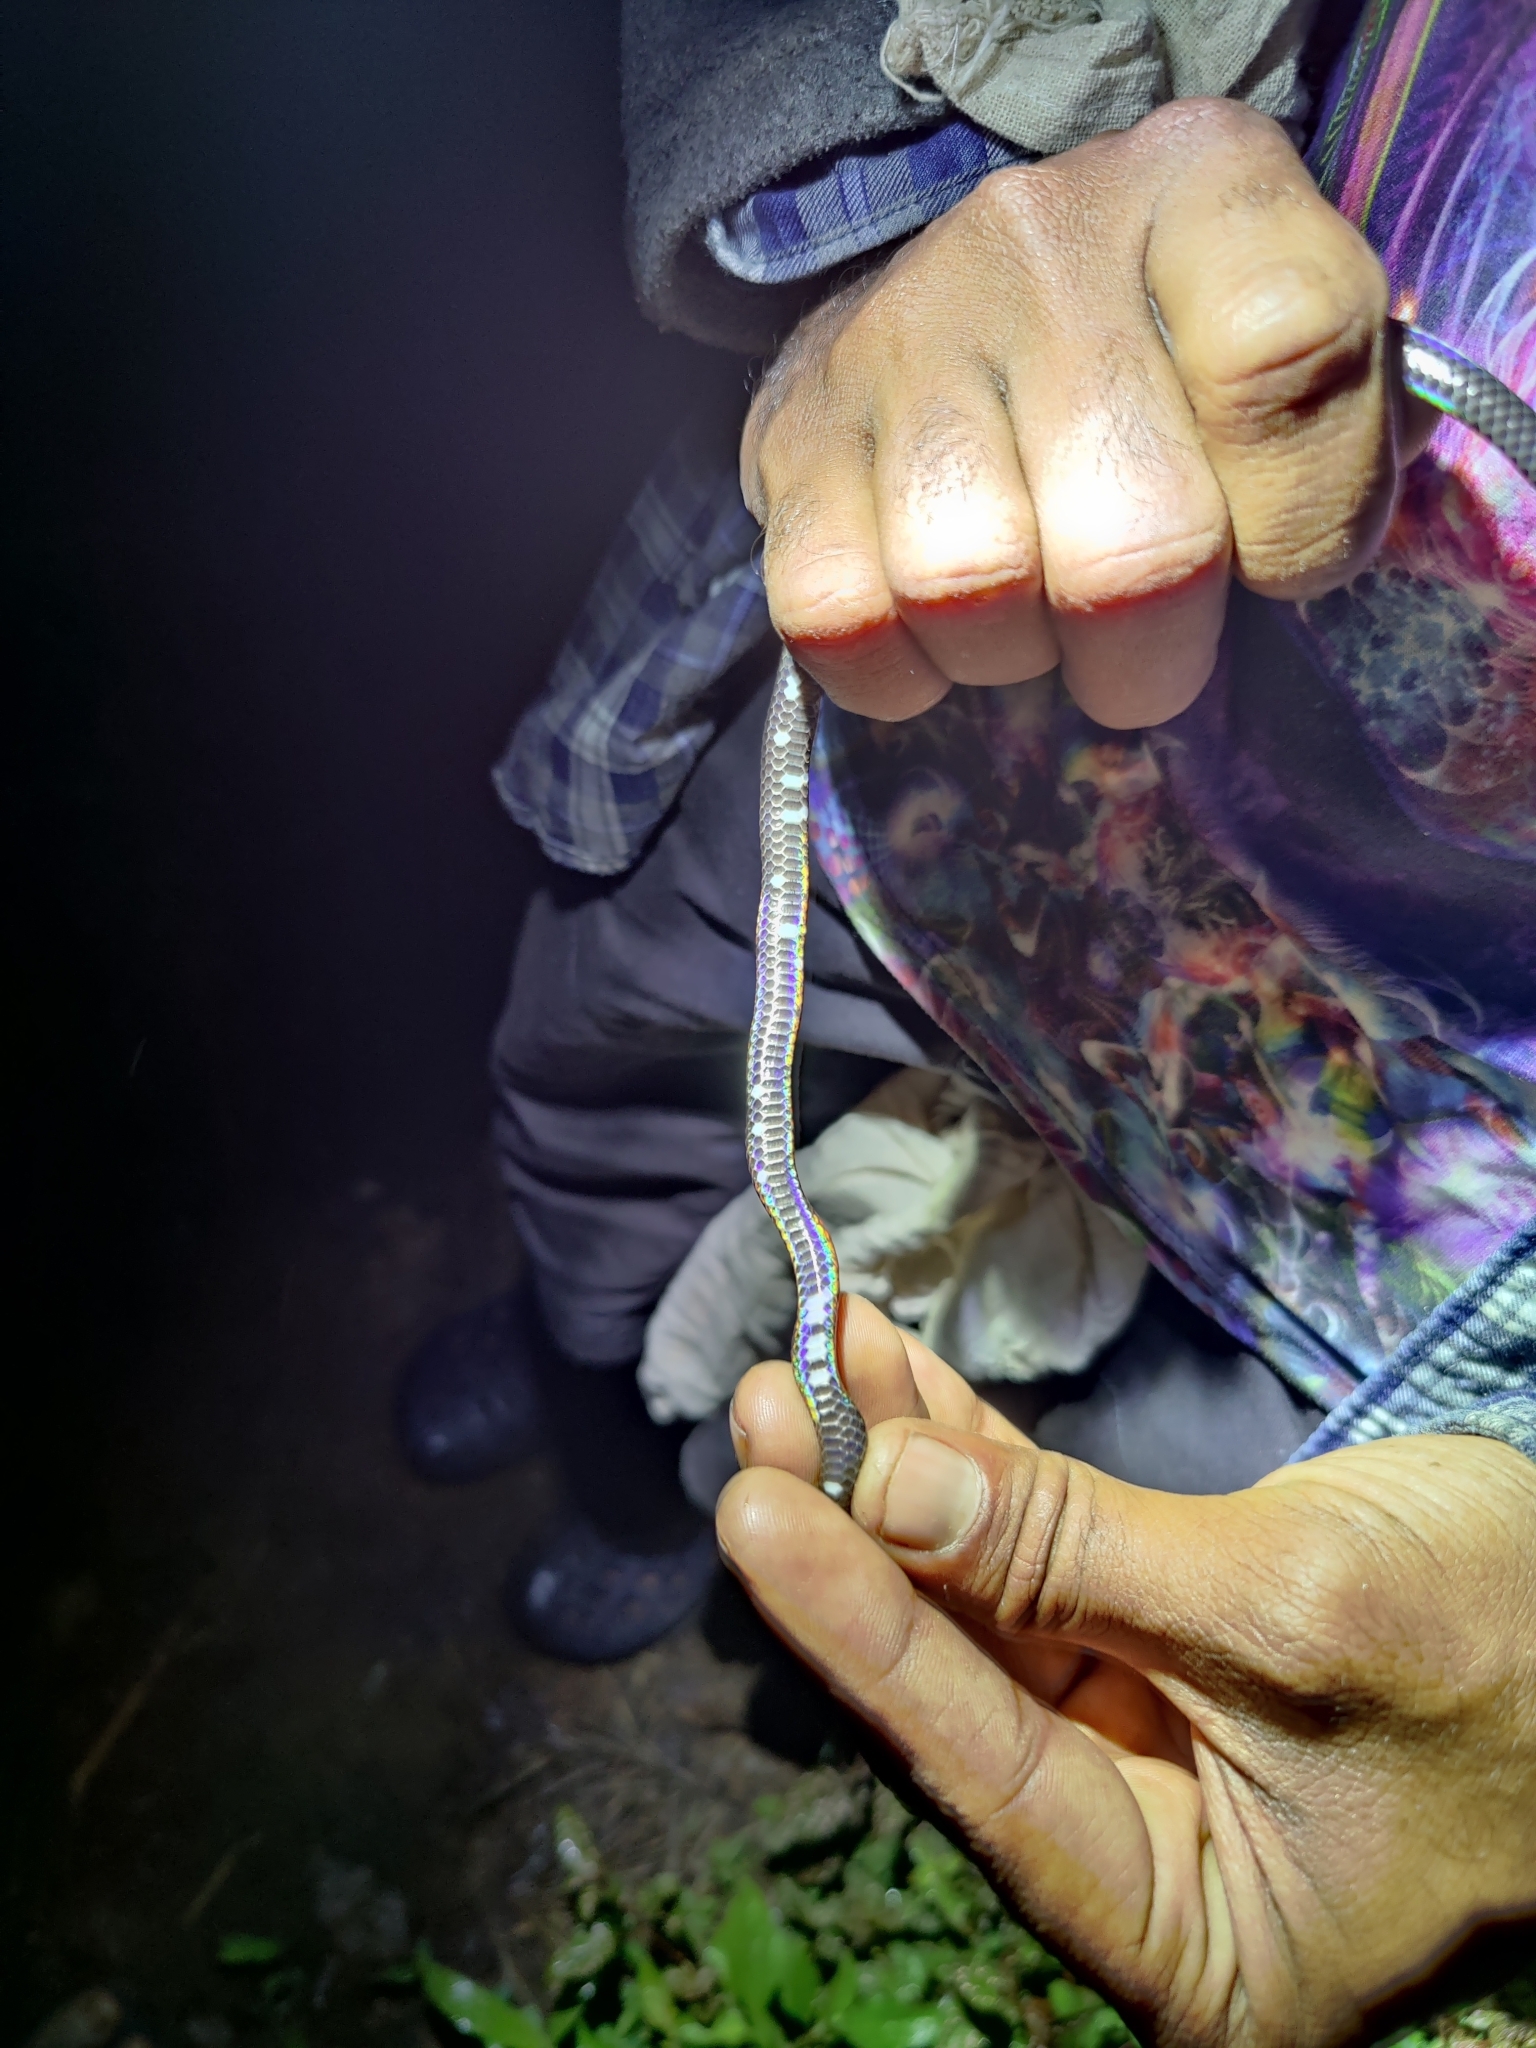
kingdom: Animalia
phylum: Chordata
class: Squamata
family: Uropeltidae
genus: Melanophidium
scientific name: Melanophidium wynaudense
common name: Indian black earth snake
